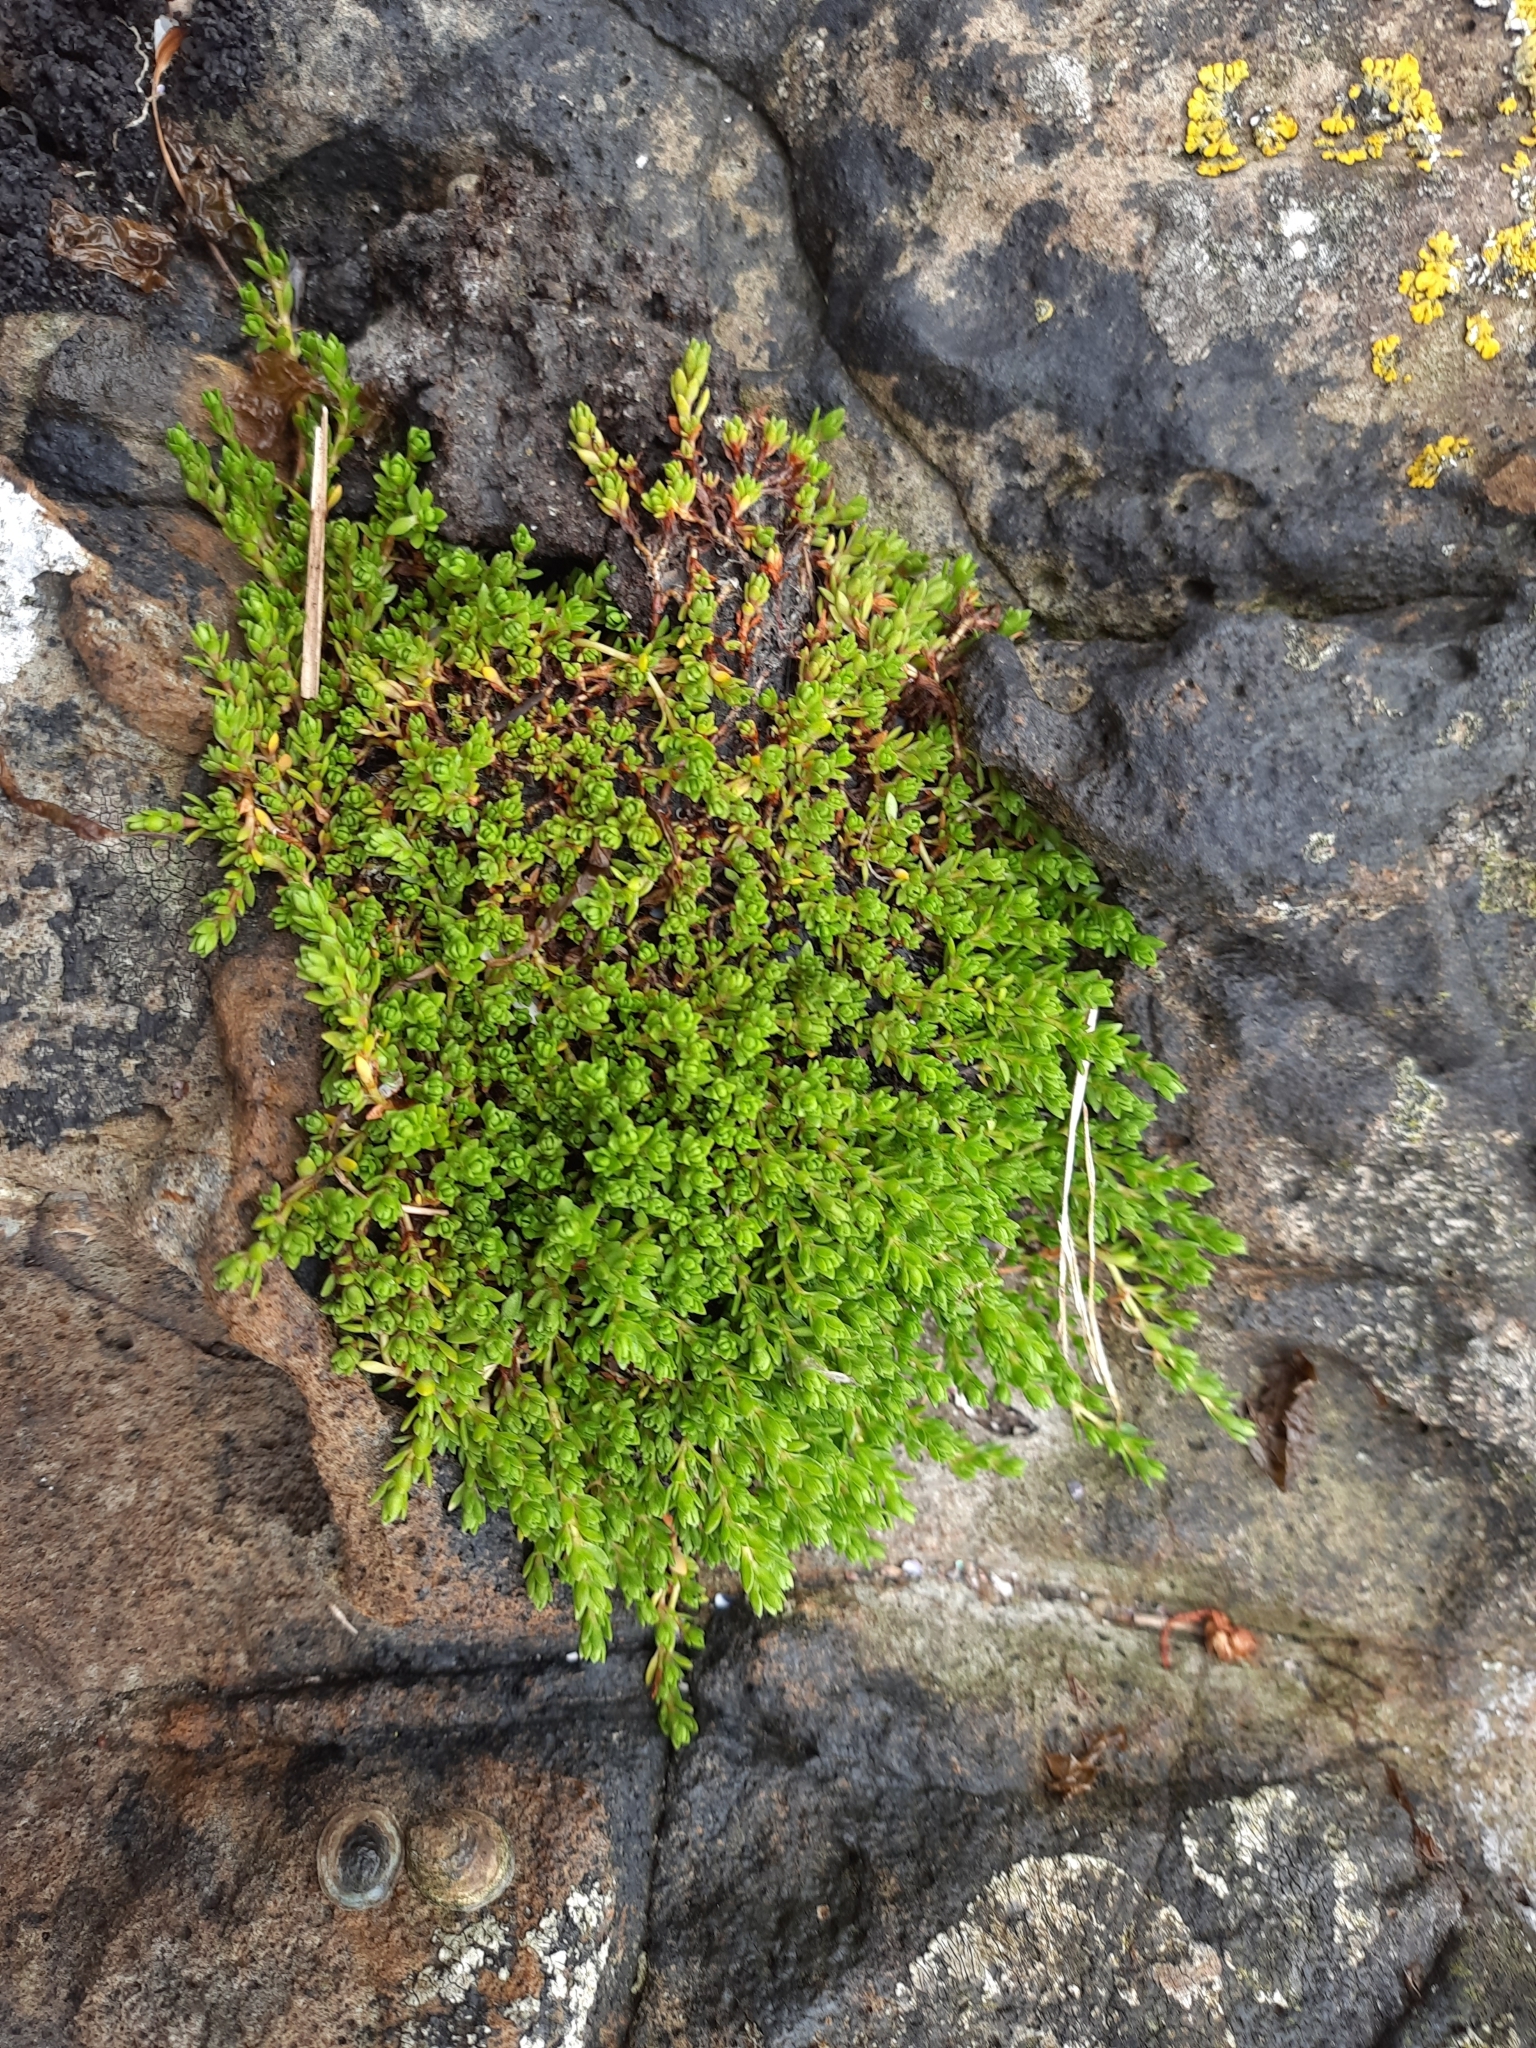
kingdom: Plantae
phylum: Tracheophyta
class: Magnoliopsida
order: Saxifragales
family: Crassulaceae
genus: Crassula
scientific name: Crassula moschata
